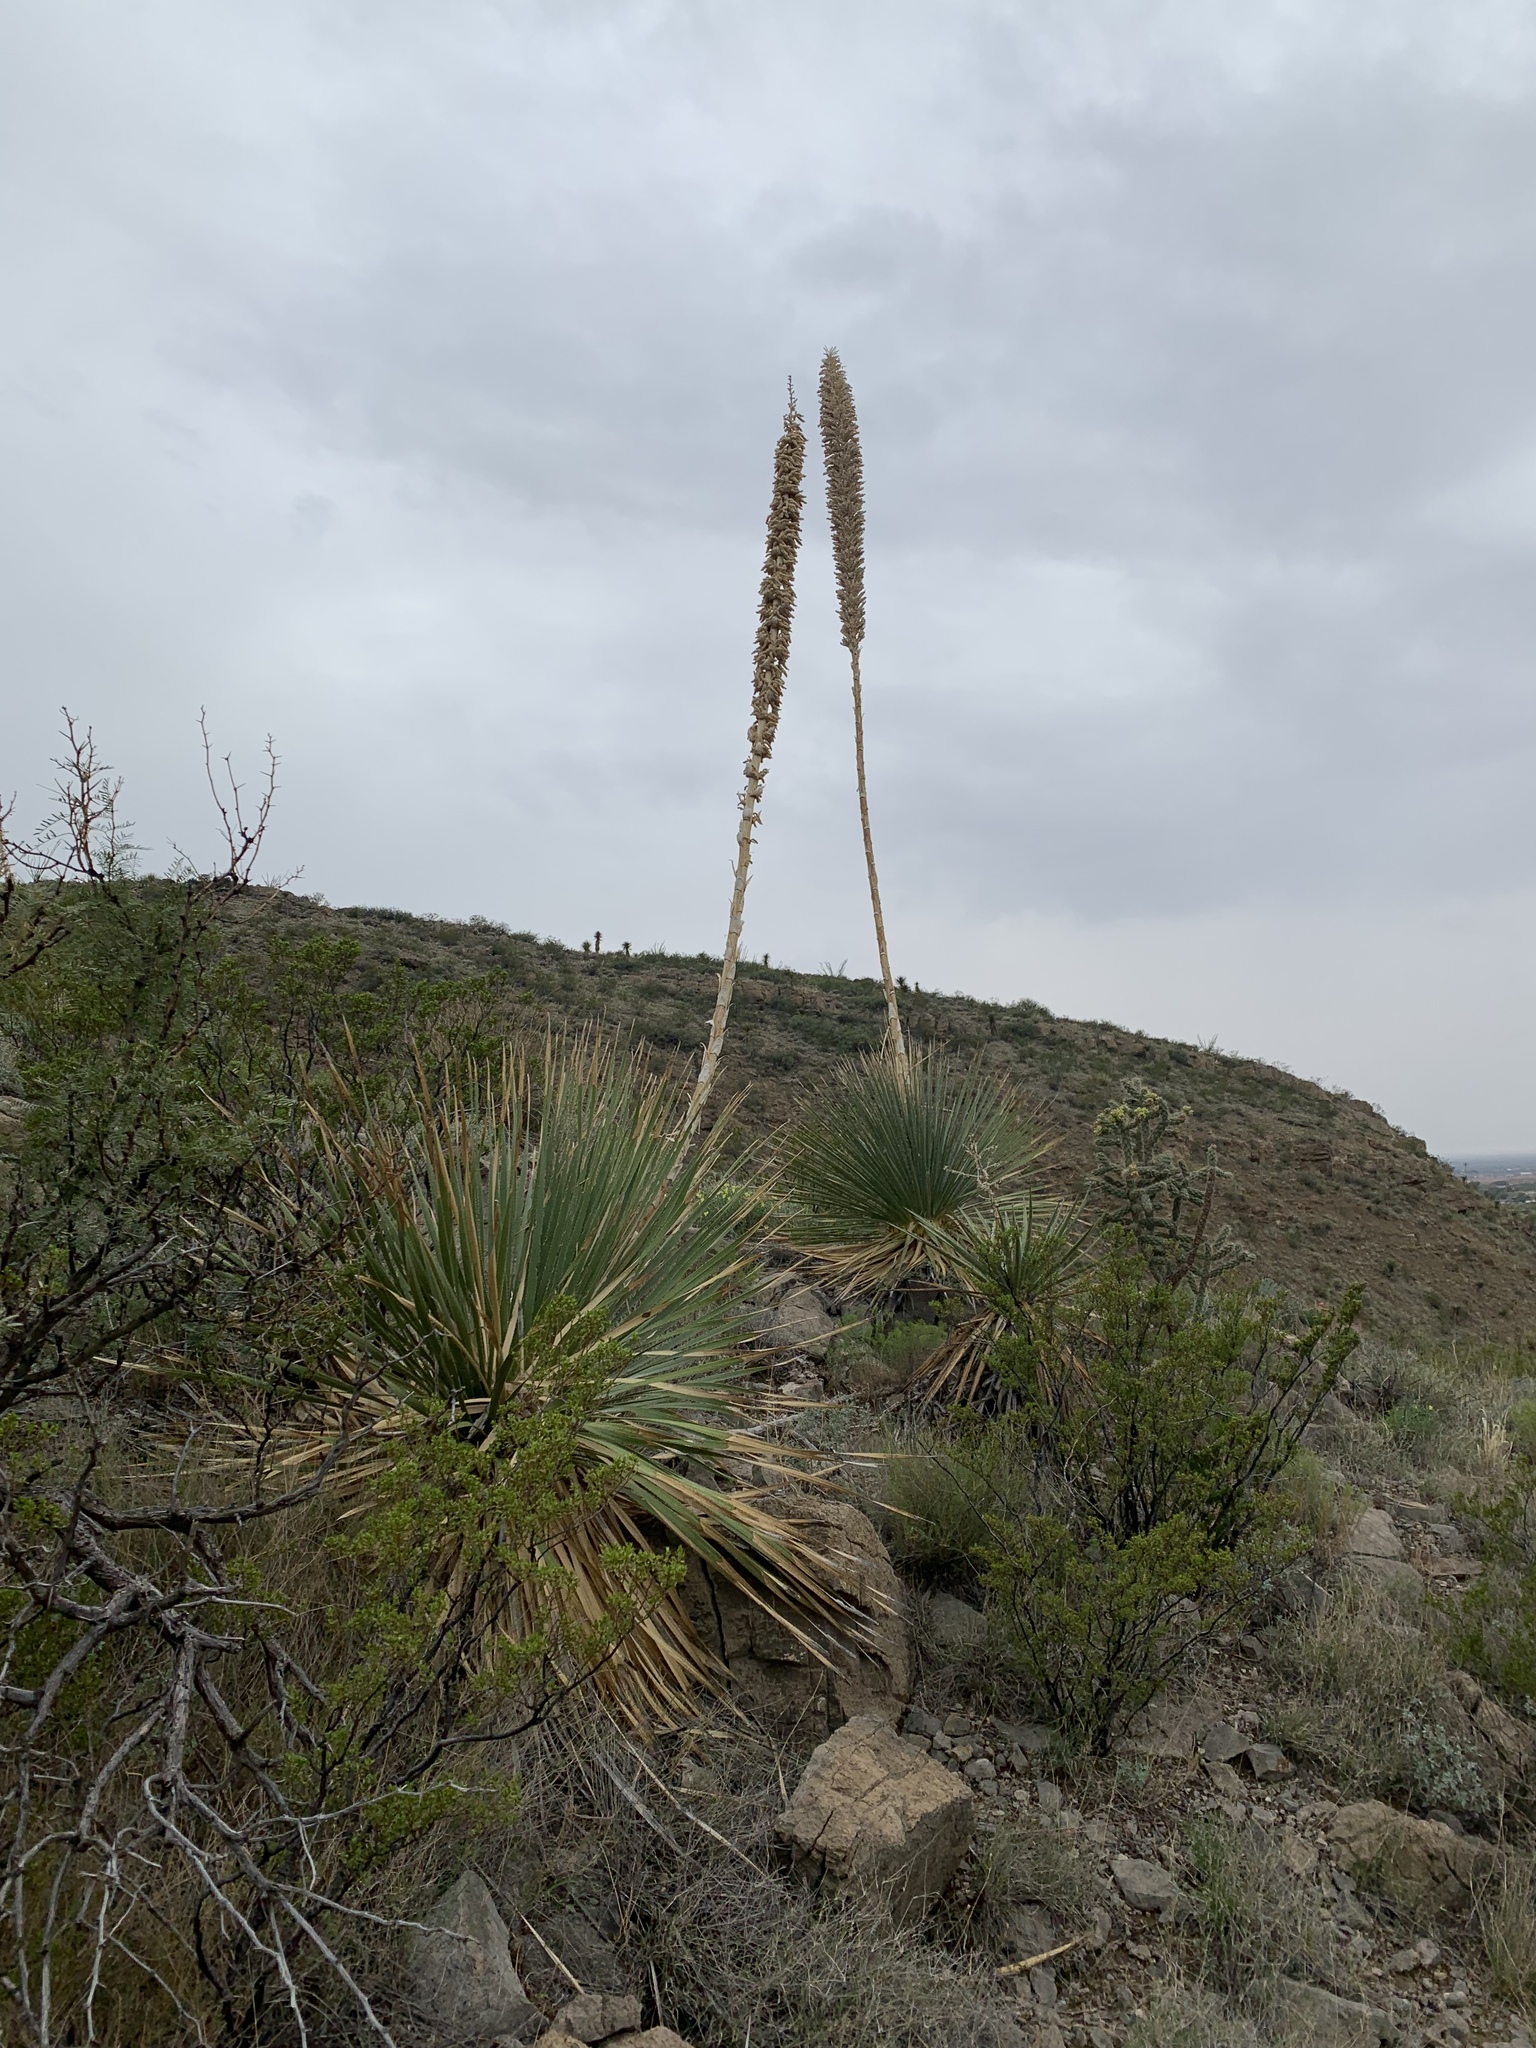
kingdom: Plantae
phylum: Tracheophyta
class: Liliopsida
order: Asparagales
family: Asparagaceae
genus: Dasylirion
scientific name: Dasylirion wheeleri
